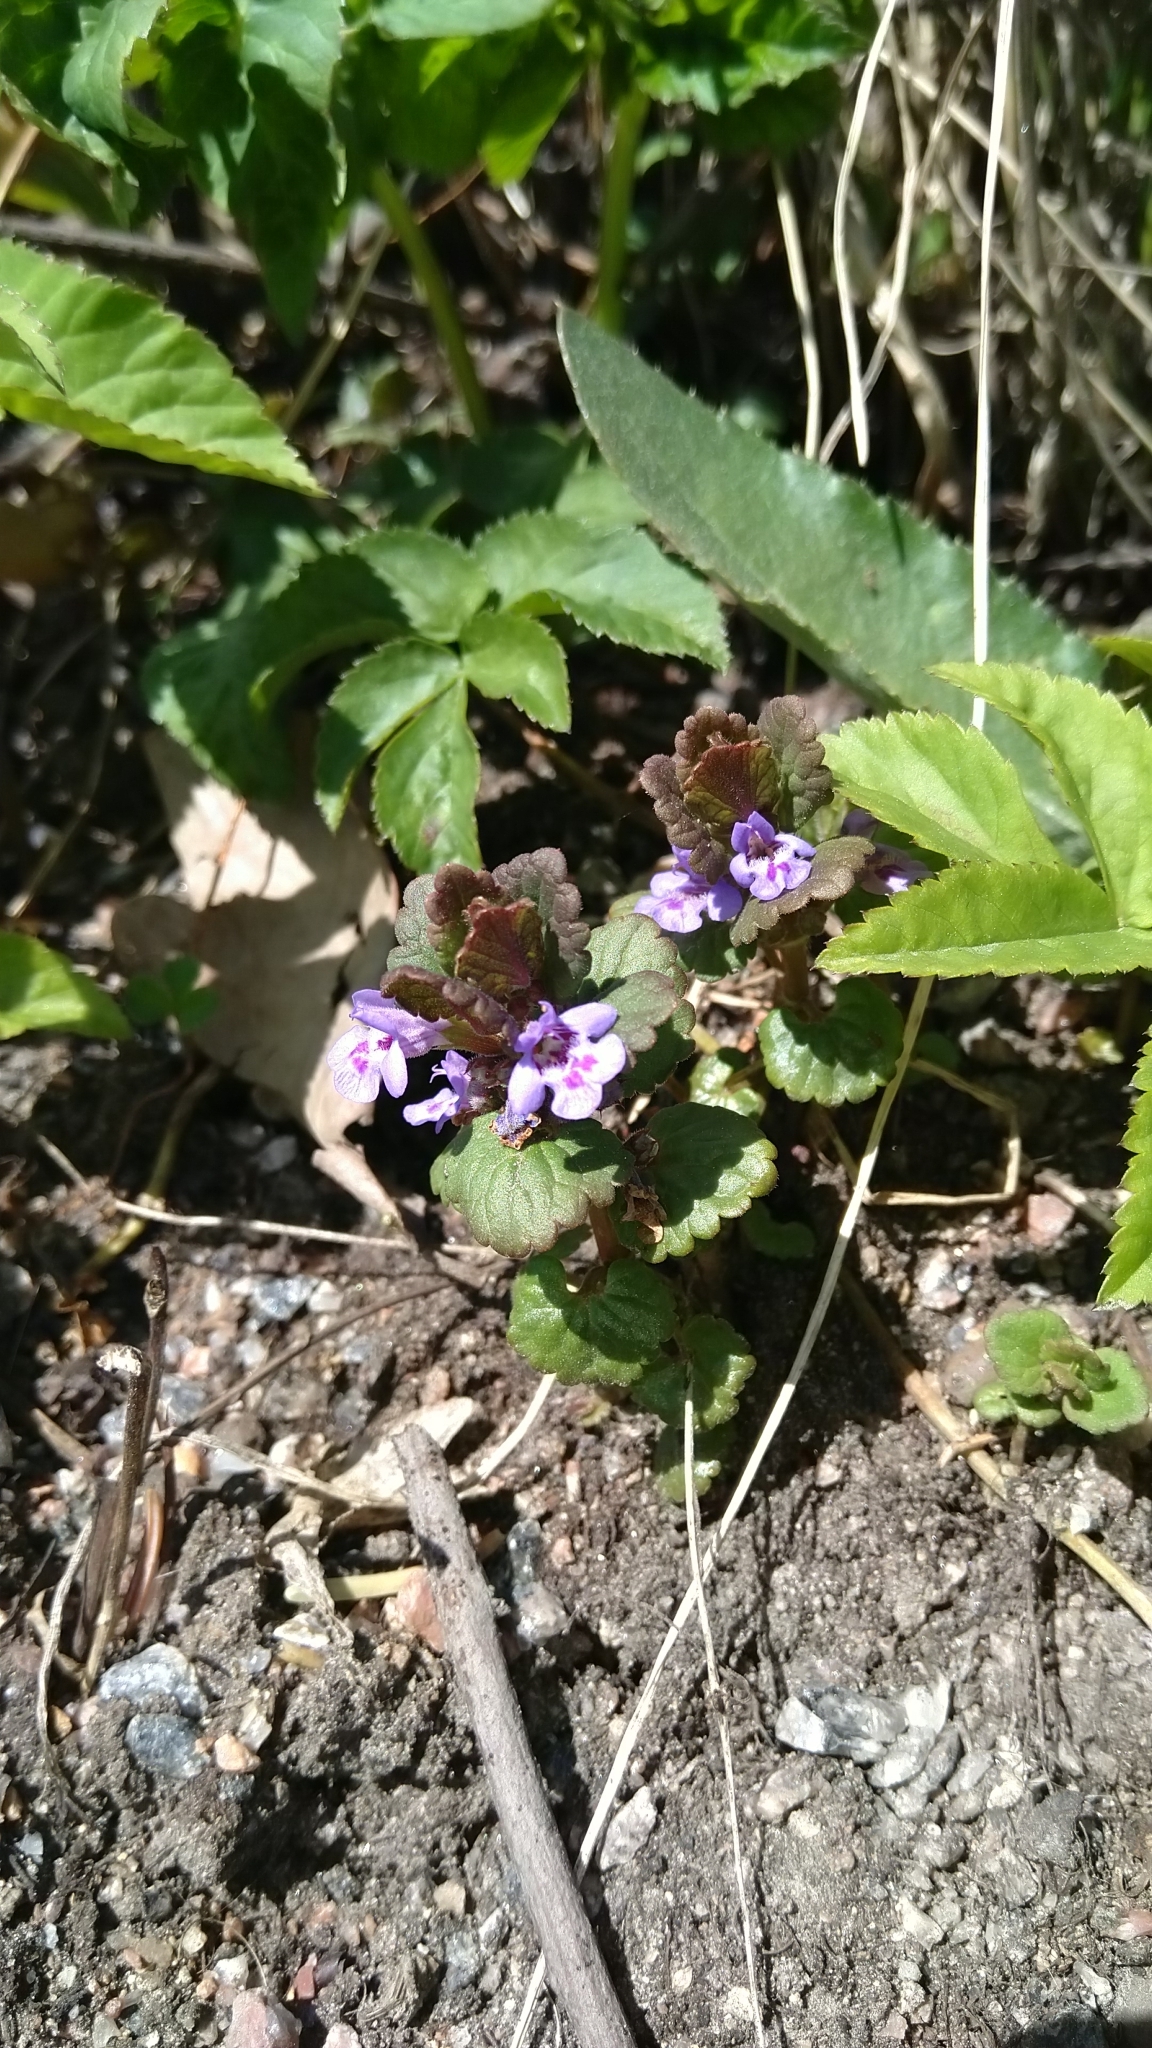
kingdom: Plantae
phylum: Tracheophyta
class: Magnoliopsida
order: Lamiales
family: Lamiaceae
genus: Glechoma
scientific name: Glechoma hederacea
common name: Ground ivy
